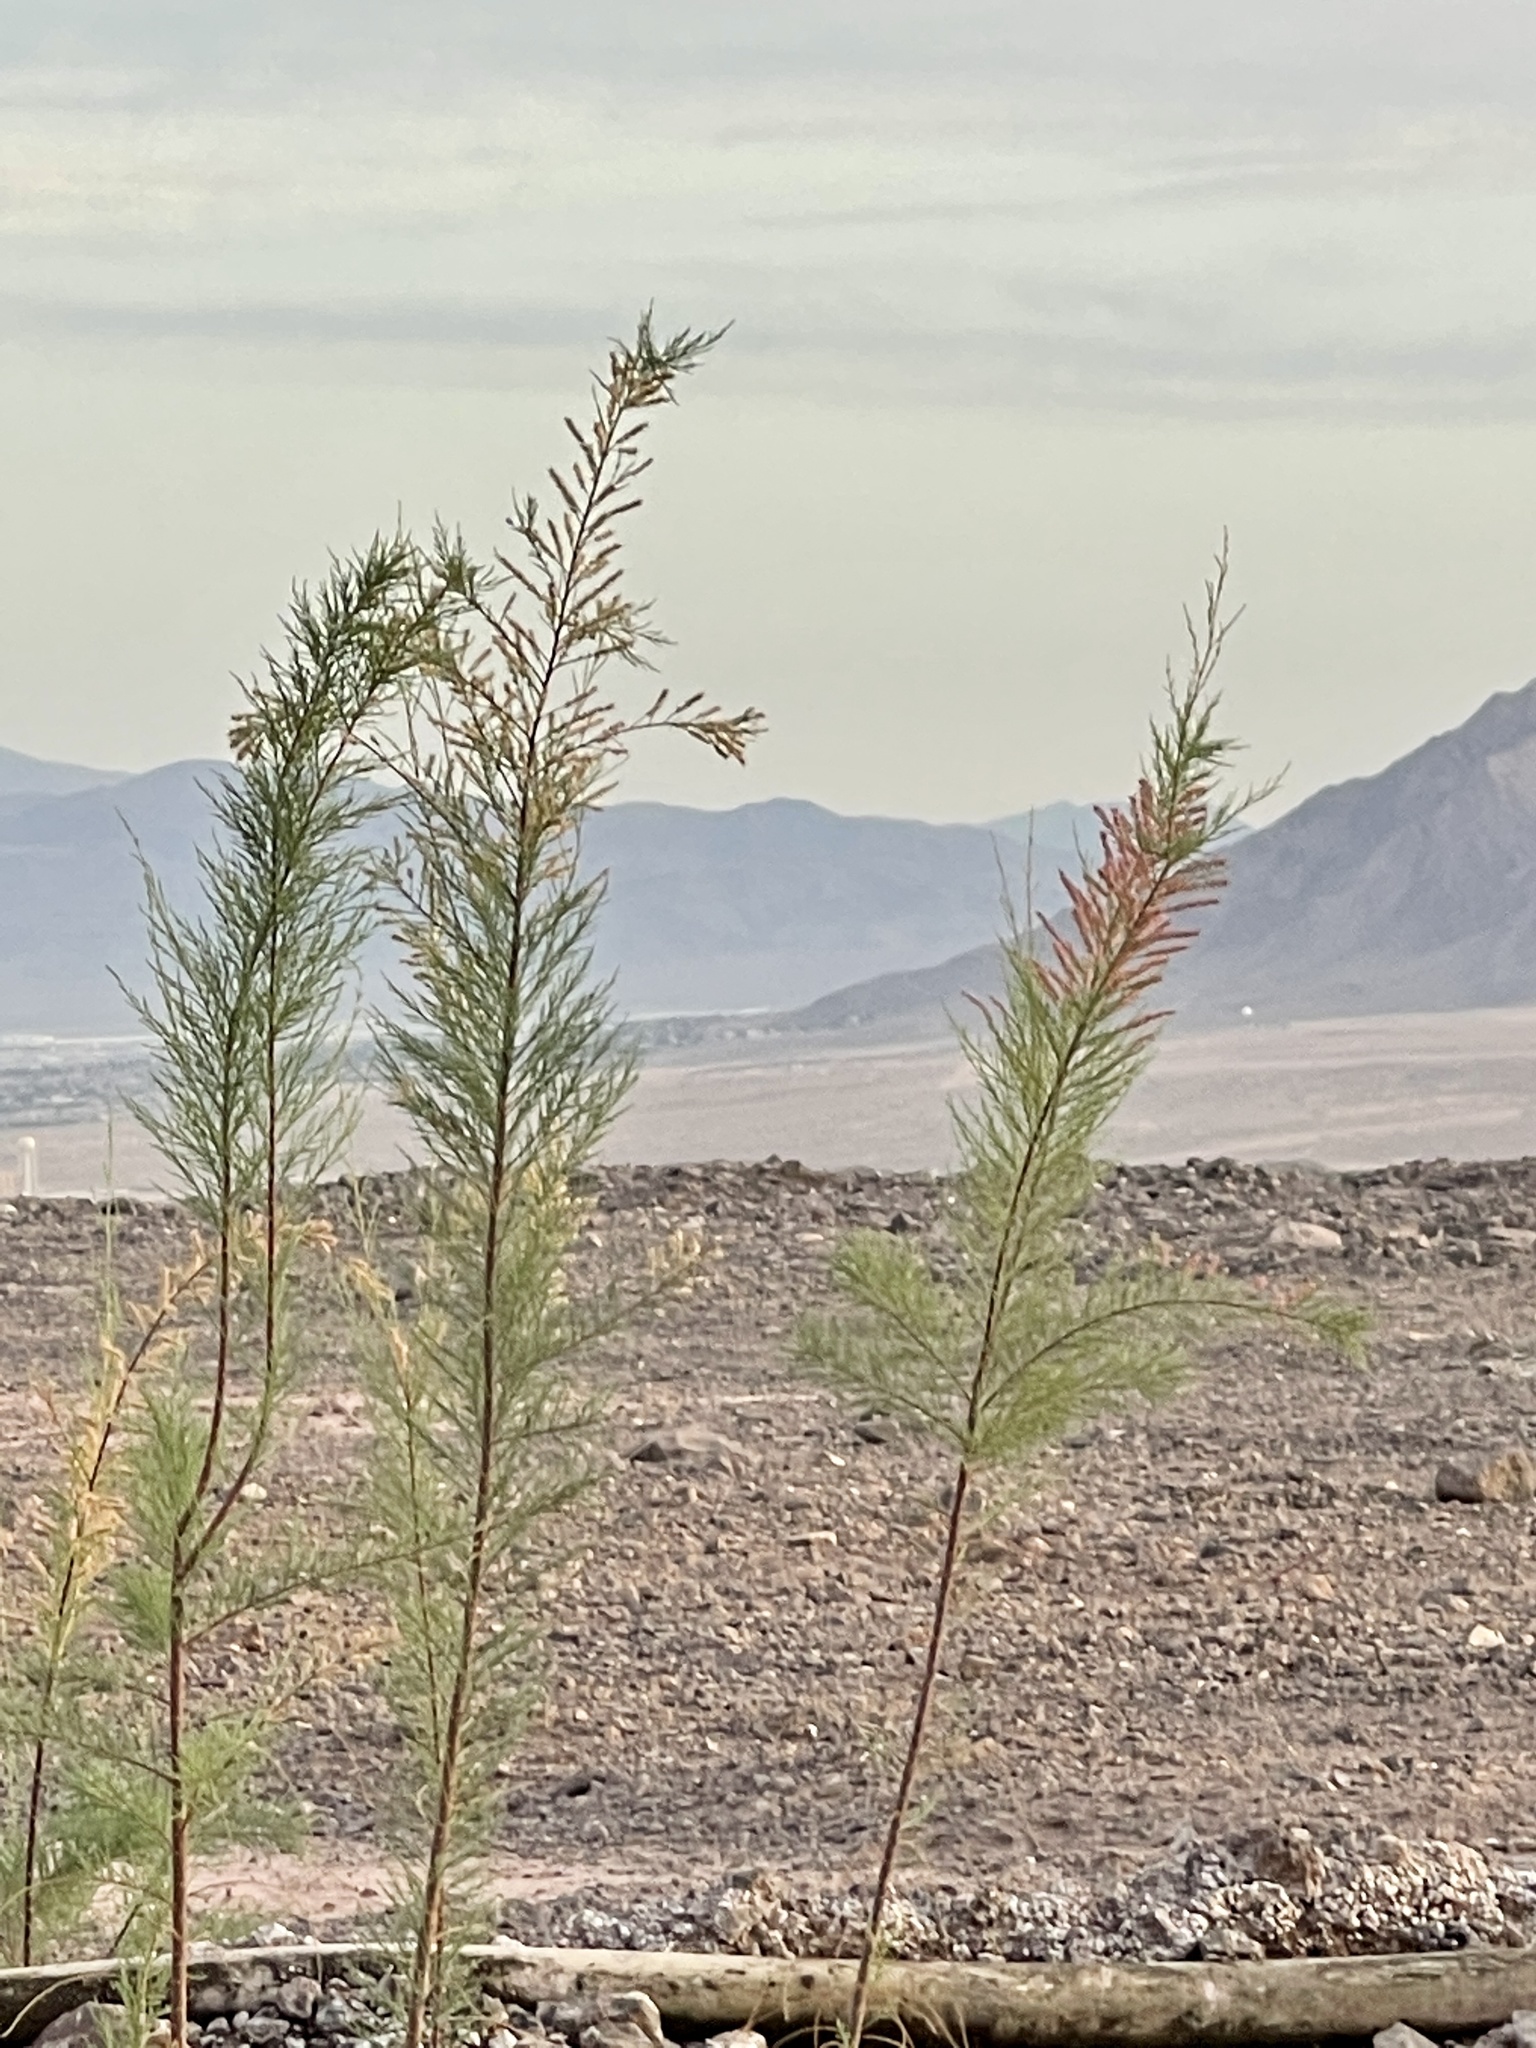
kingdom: Plantae
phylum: Tracheophyta
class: Magnoliopsida
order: Caryophyllales
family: Tamaricaceae
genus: Tamarix
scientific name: Tamarix
